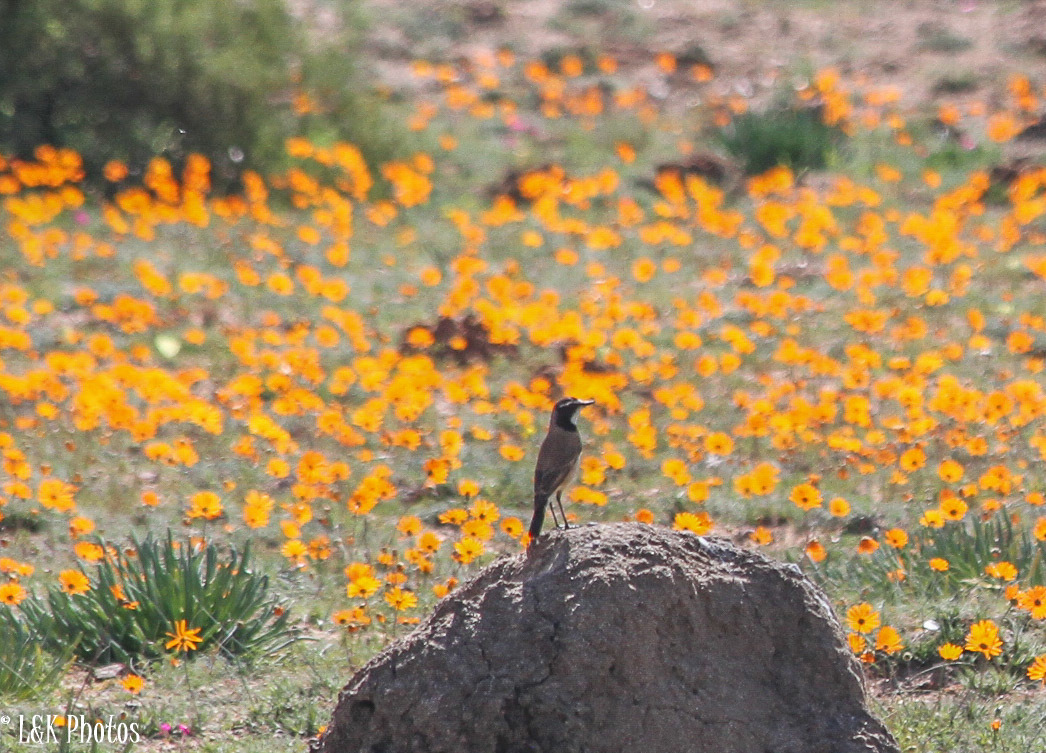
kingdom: Animalia
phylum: Chordata
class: Aves
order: Passeriformes
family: Muscicapidae
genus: Oenanthe
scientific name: Oenanthe pileata
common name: Capped wheatear
